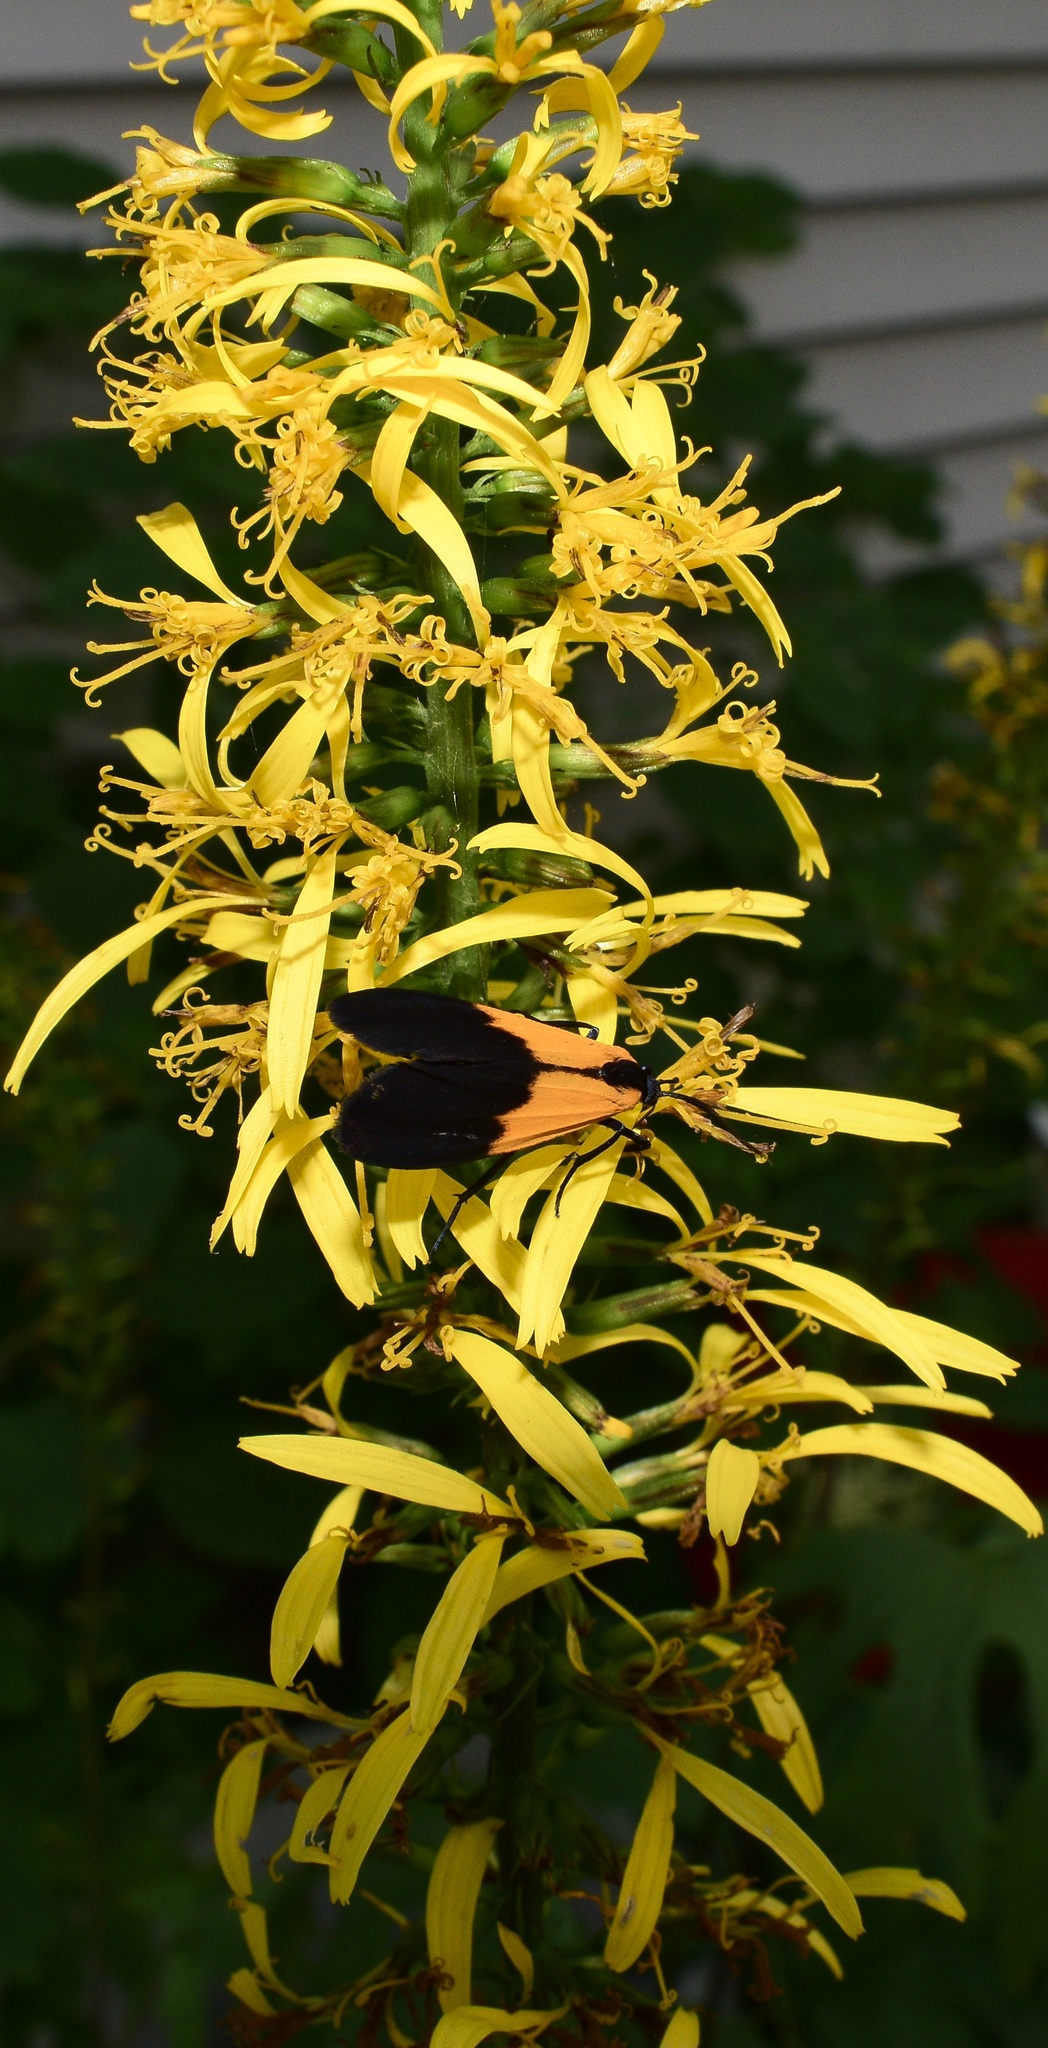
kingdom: Animalia
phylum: Arthropoda
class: Insecta
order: Lepidoptera
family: Erebidae
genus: Lycomorpha
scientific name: Lycomorpha pholus
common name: Black-and-yellow lichen moth
